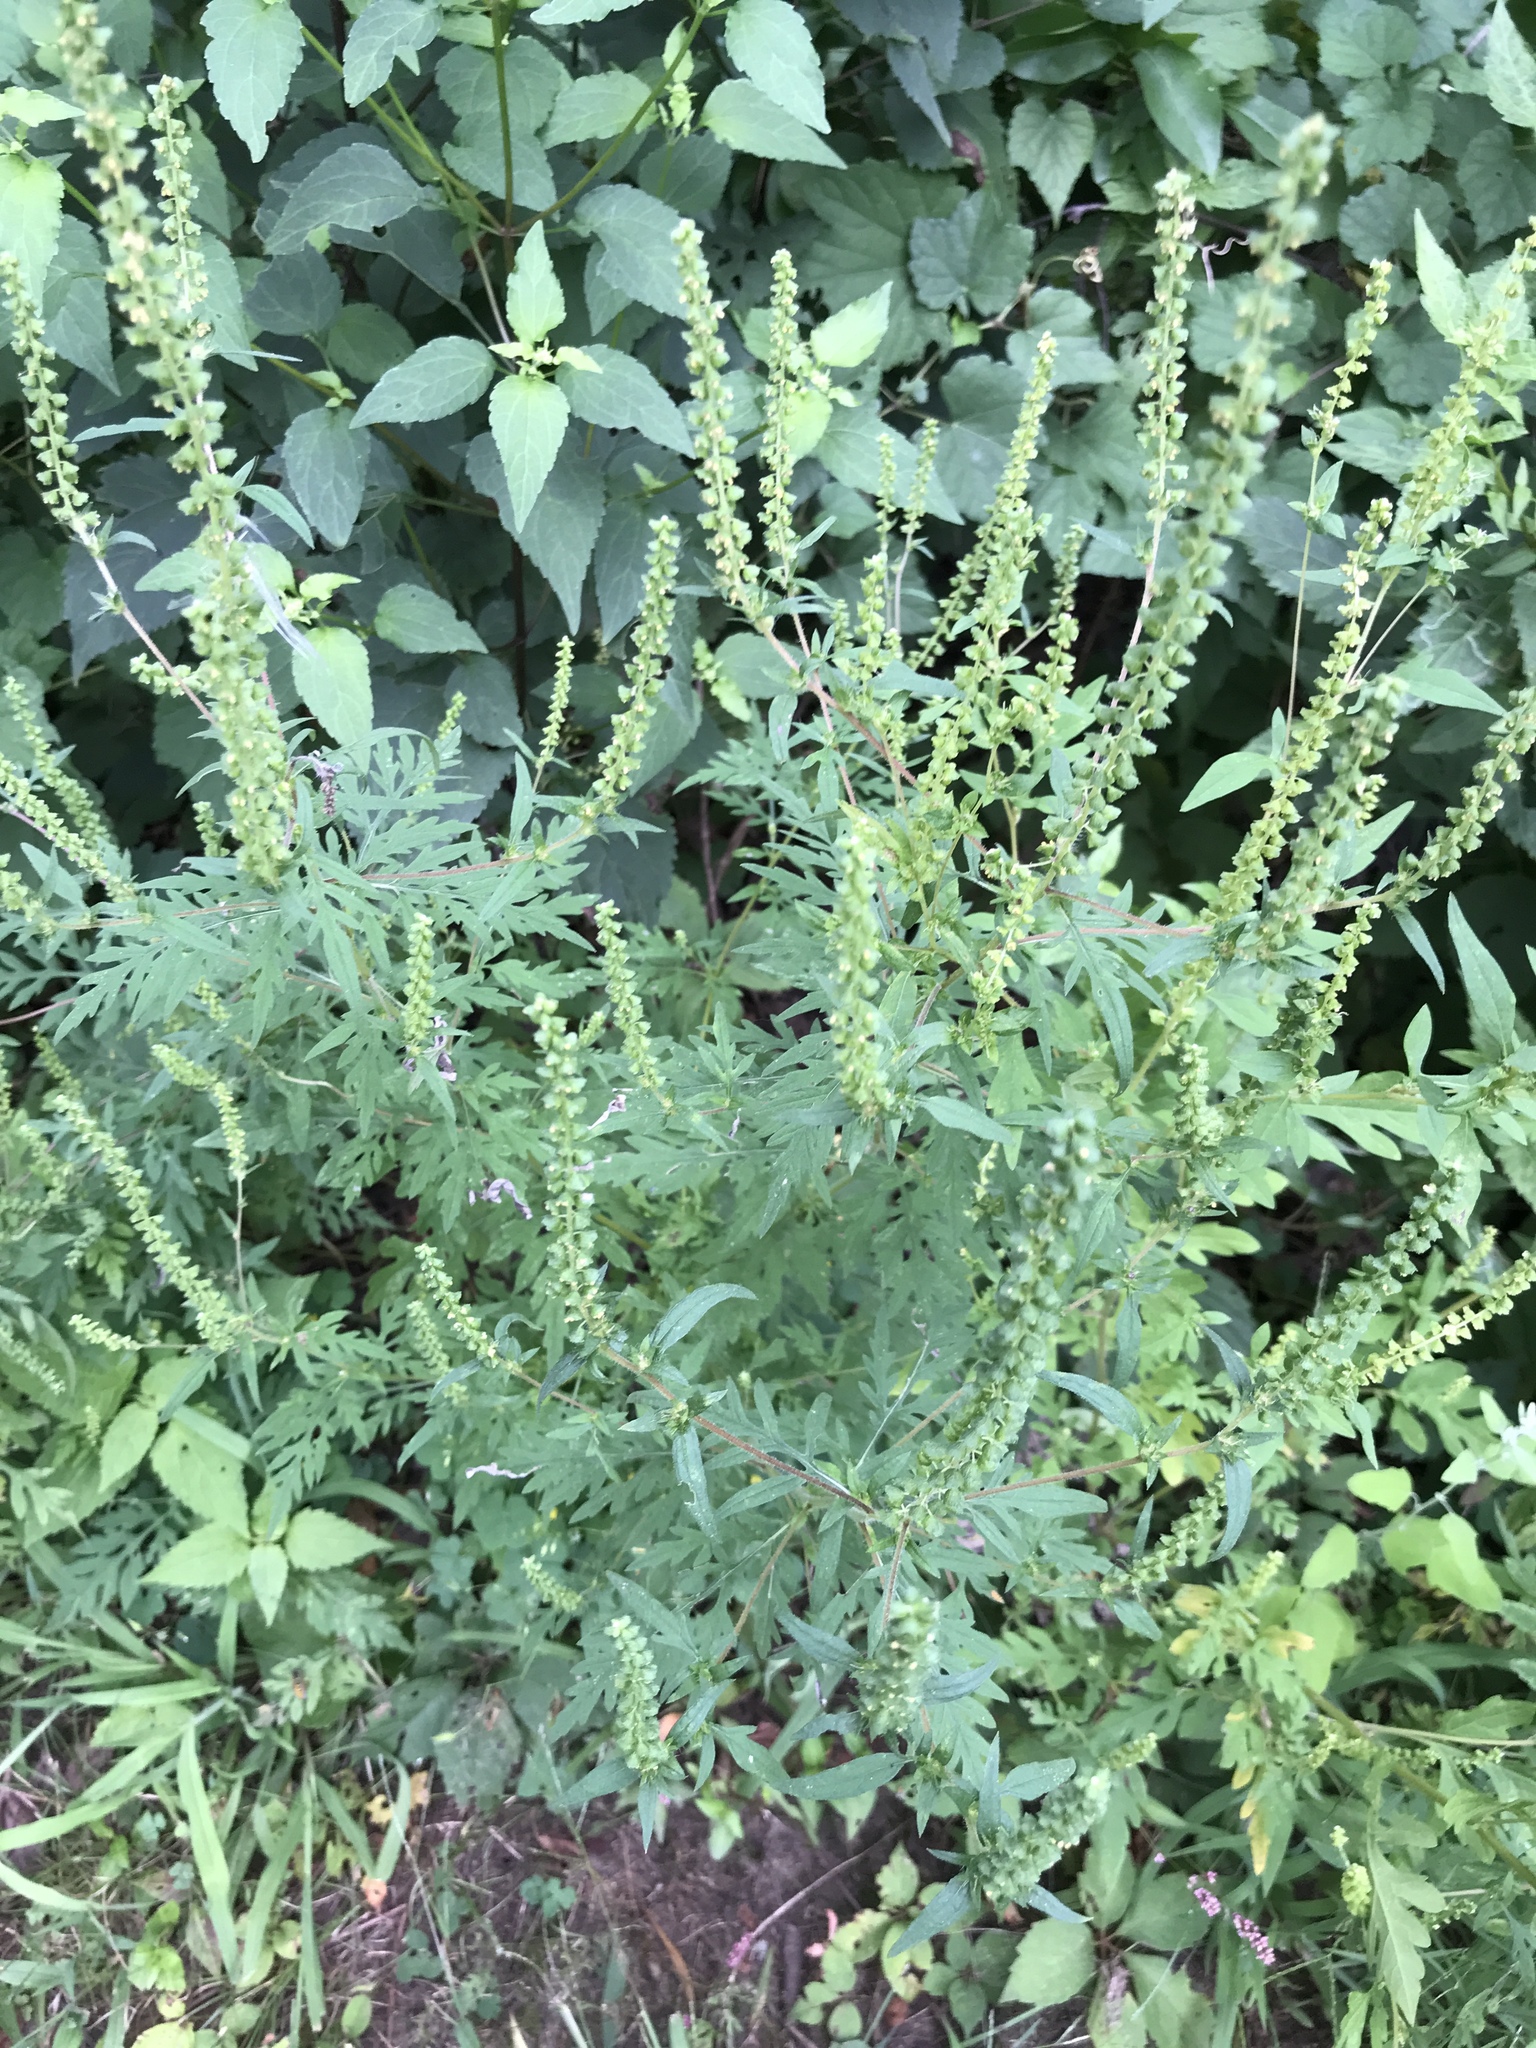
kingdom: Plantae
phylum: Tracheophyta
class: Magnoliopsida
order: Asterales
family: Asteraceae
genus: Ambrosia
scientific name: Ambrosia artemisiifolia
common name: Annual ragweed
